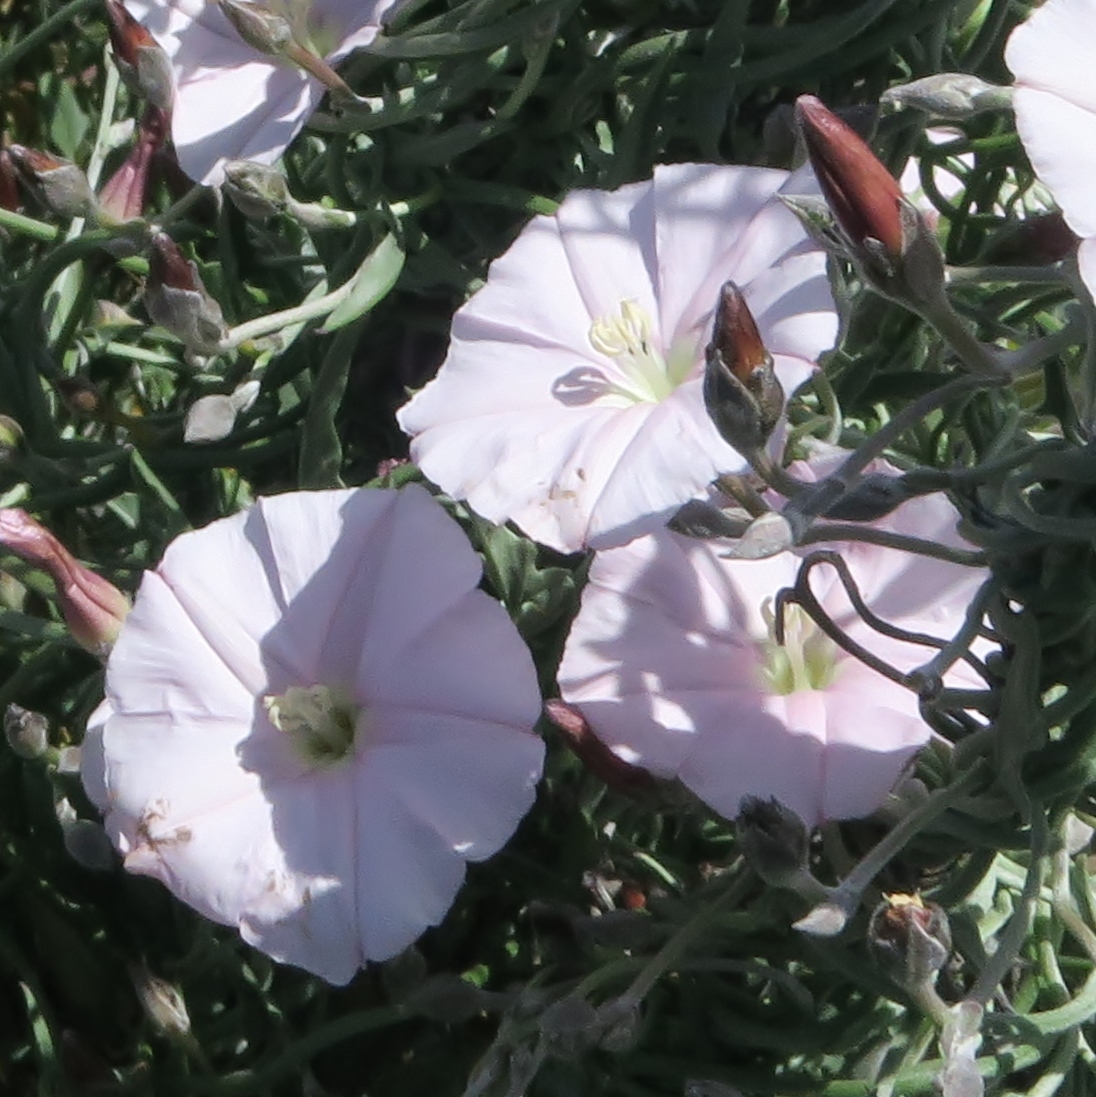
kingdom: Plantae
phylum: Tracheophyta
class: Magnoliopsida
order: Solanales
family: Convolvulaceae
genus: Convolvulus
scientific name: Convolvulus sagittatus
